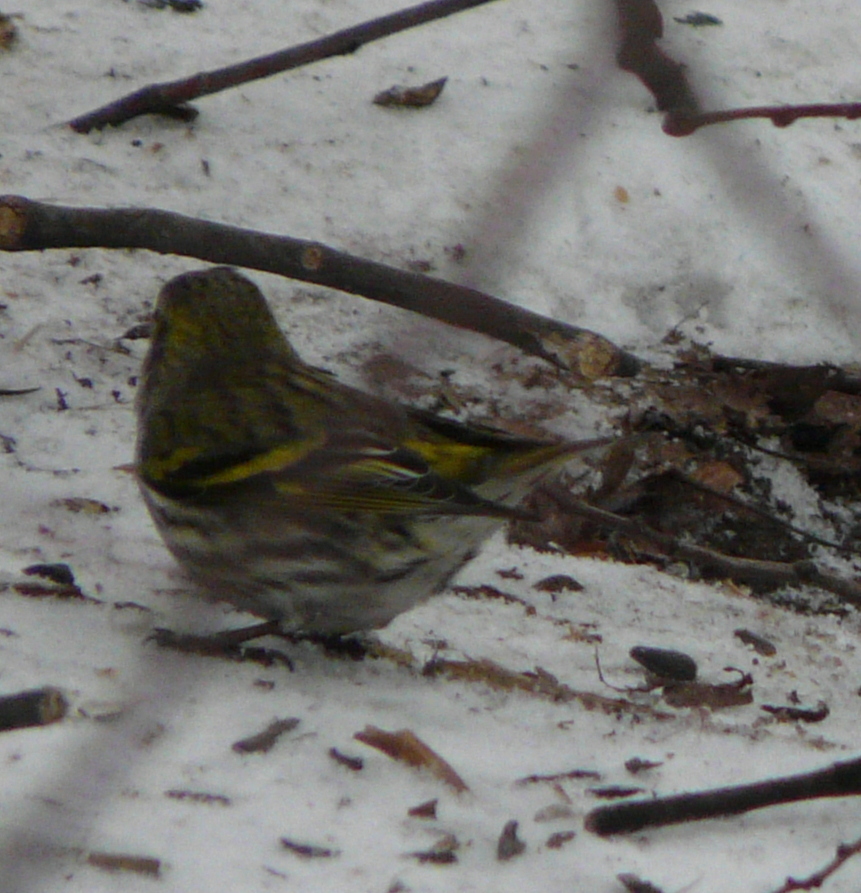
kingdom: Animalia
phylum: Chordata
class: Aves
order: Passeriformes
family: Fringillidae
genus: Spinus
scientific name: Spinus spinus
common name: Eurasian siskin
